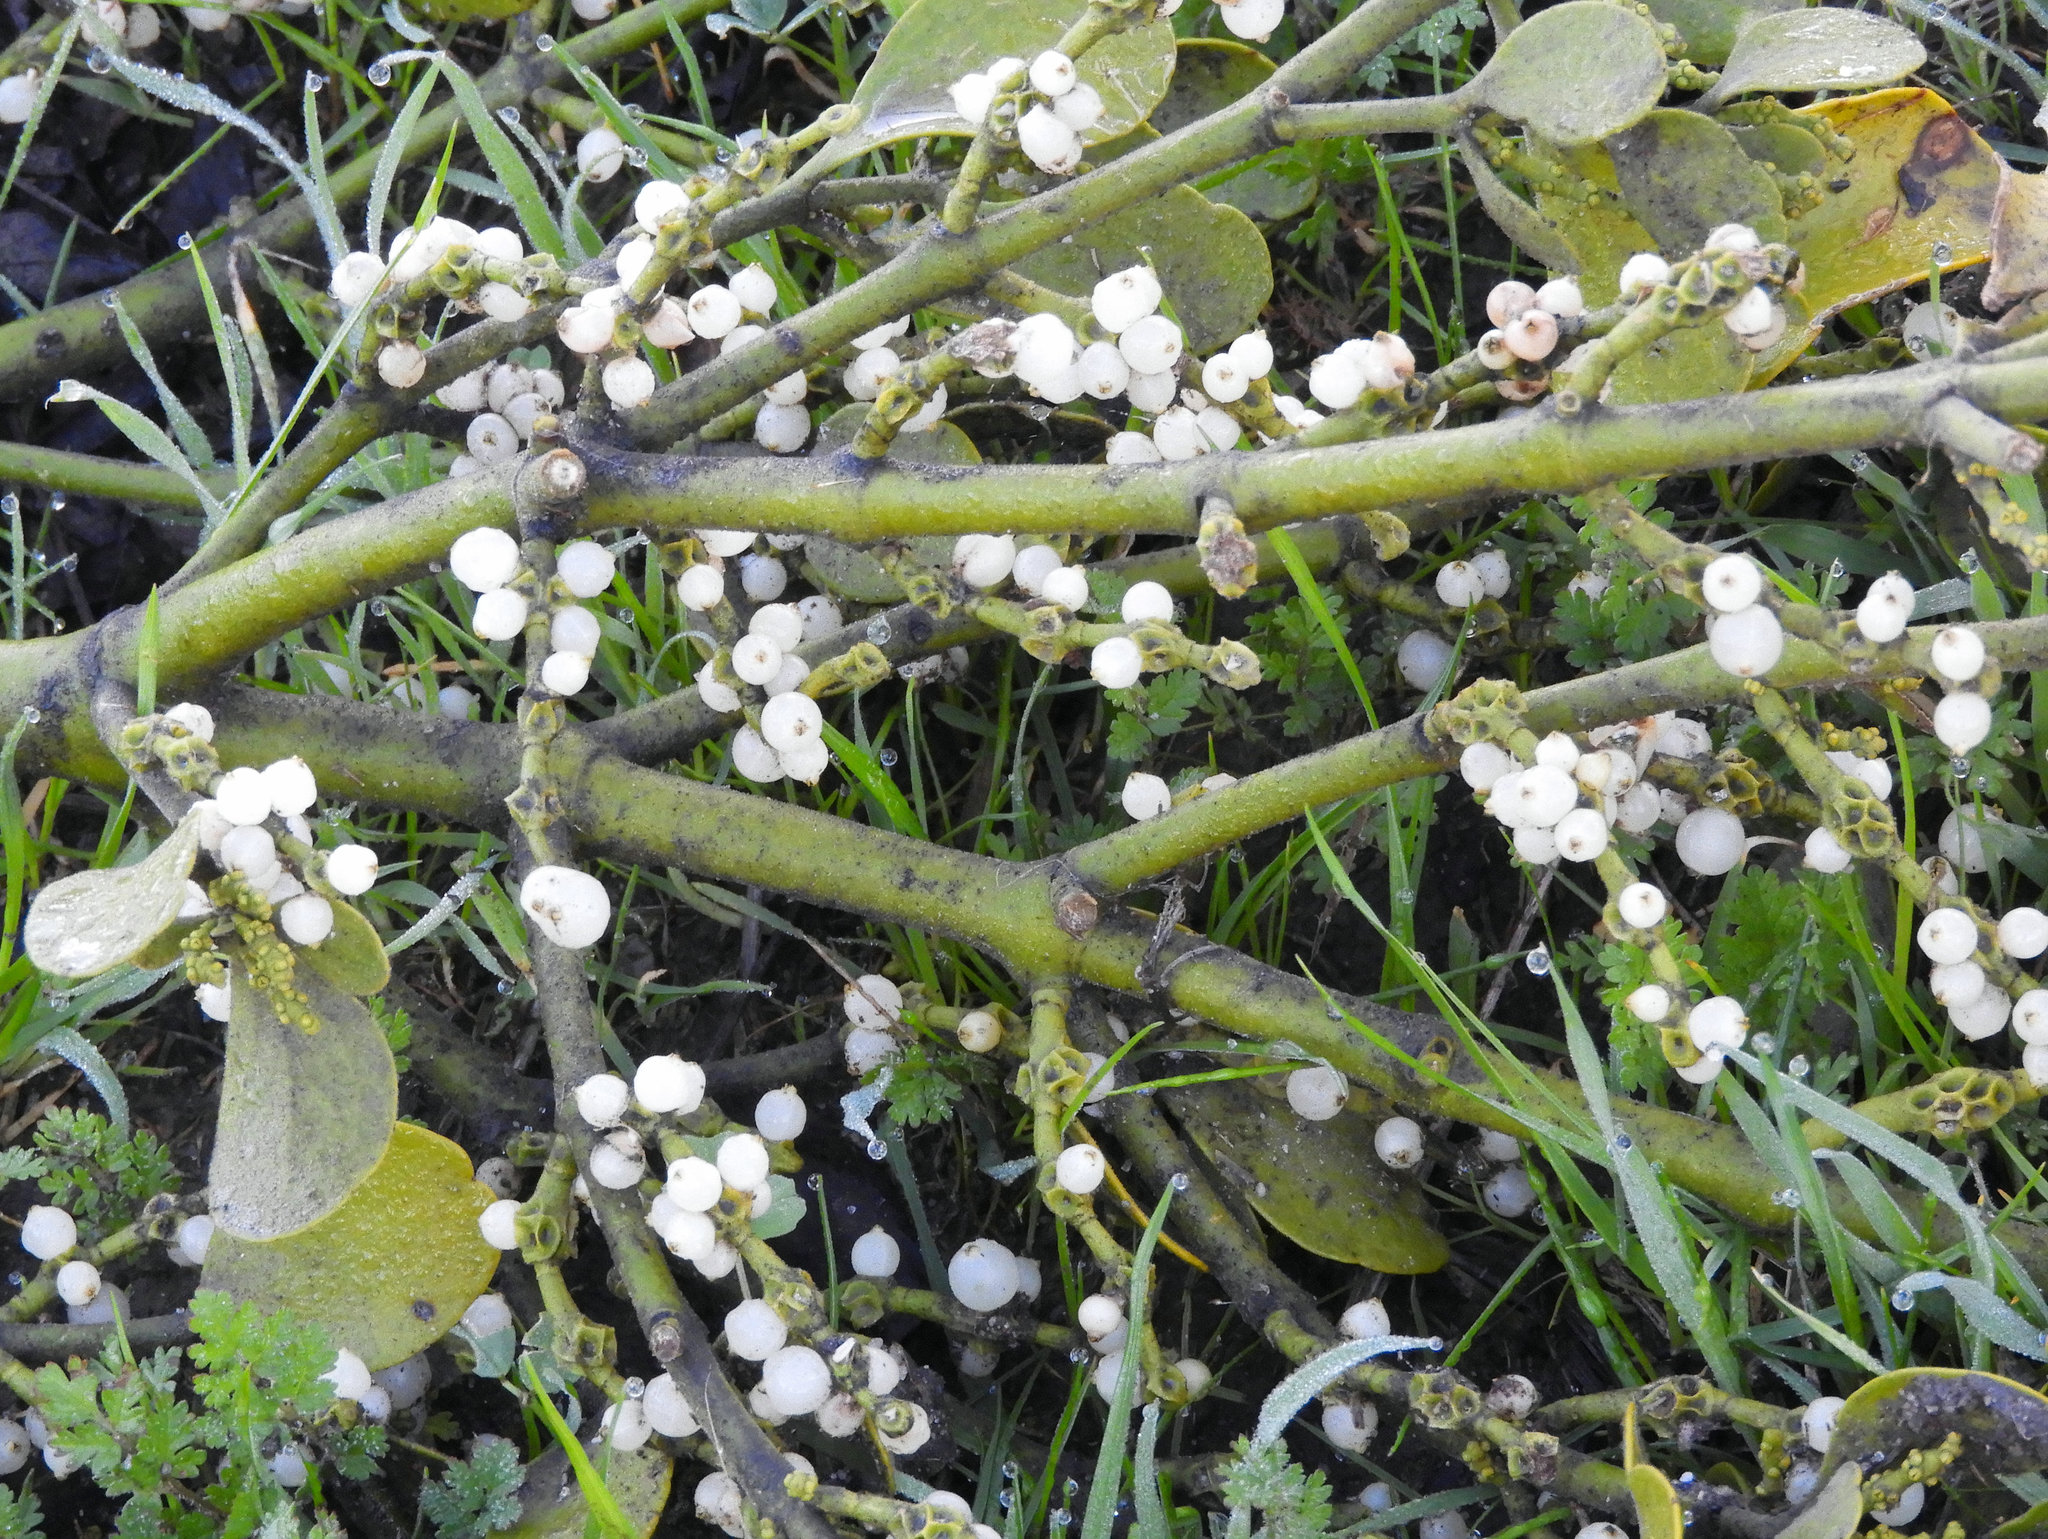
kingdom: Plantae
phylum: Tracheophyta
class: Magnoliopsida
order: Santalales
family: Viscaceae
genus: Phoradendron
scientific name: Phoradendron leucarpum
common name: Pacific mistletoe
